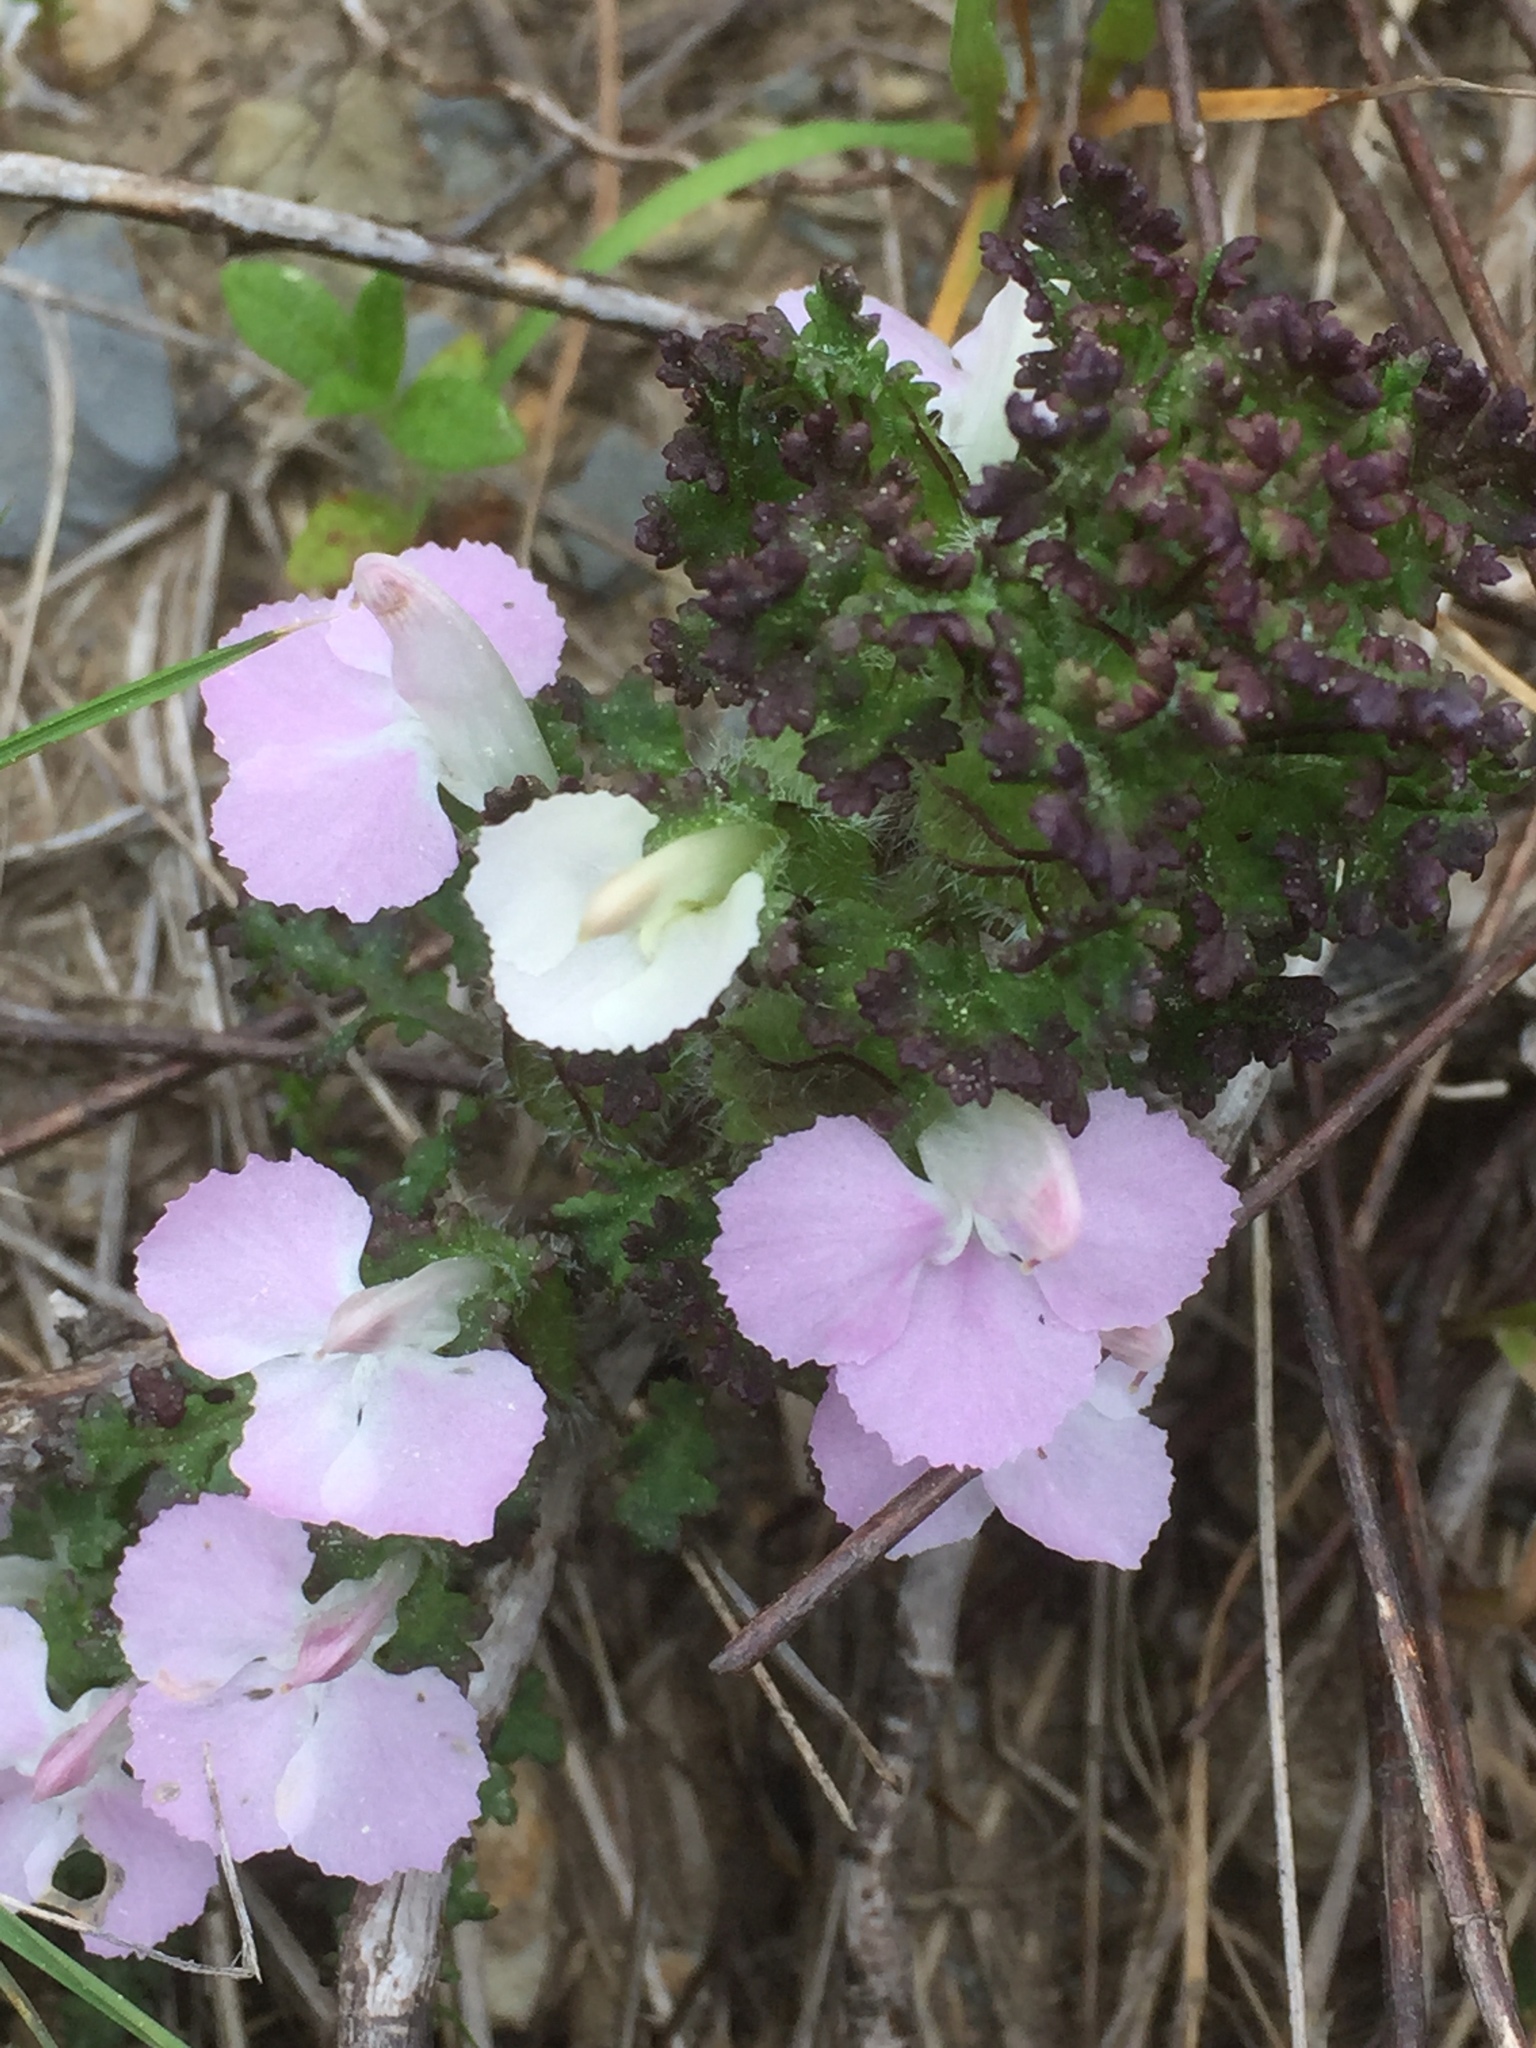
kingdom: Plantae
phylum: Tracheophyta
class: Magnoliopsida
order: Lamiales
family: Orobanchaceae
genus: Pedicularis
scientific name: Pedicularis sylvatica
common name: Lousewort
